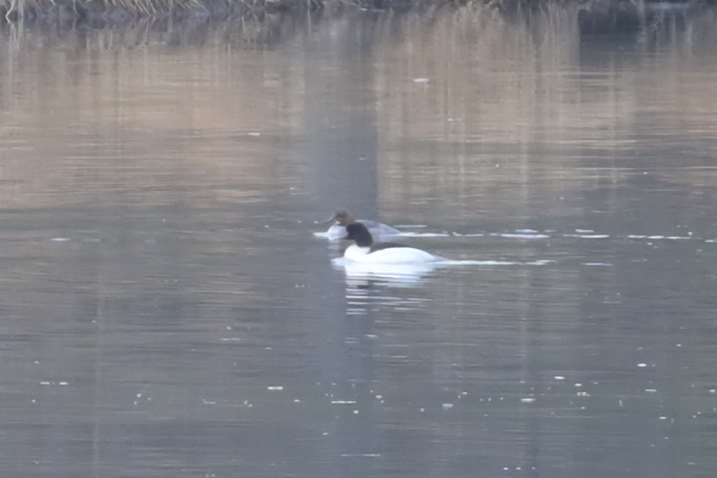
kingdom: Animalia
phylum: Chordata
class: Aves
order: Anseriformes
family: Anatidae
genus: Mergus
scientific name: Mergus merganser
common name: Common merganser
